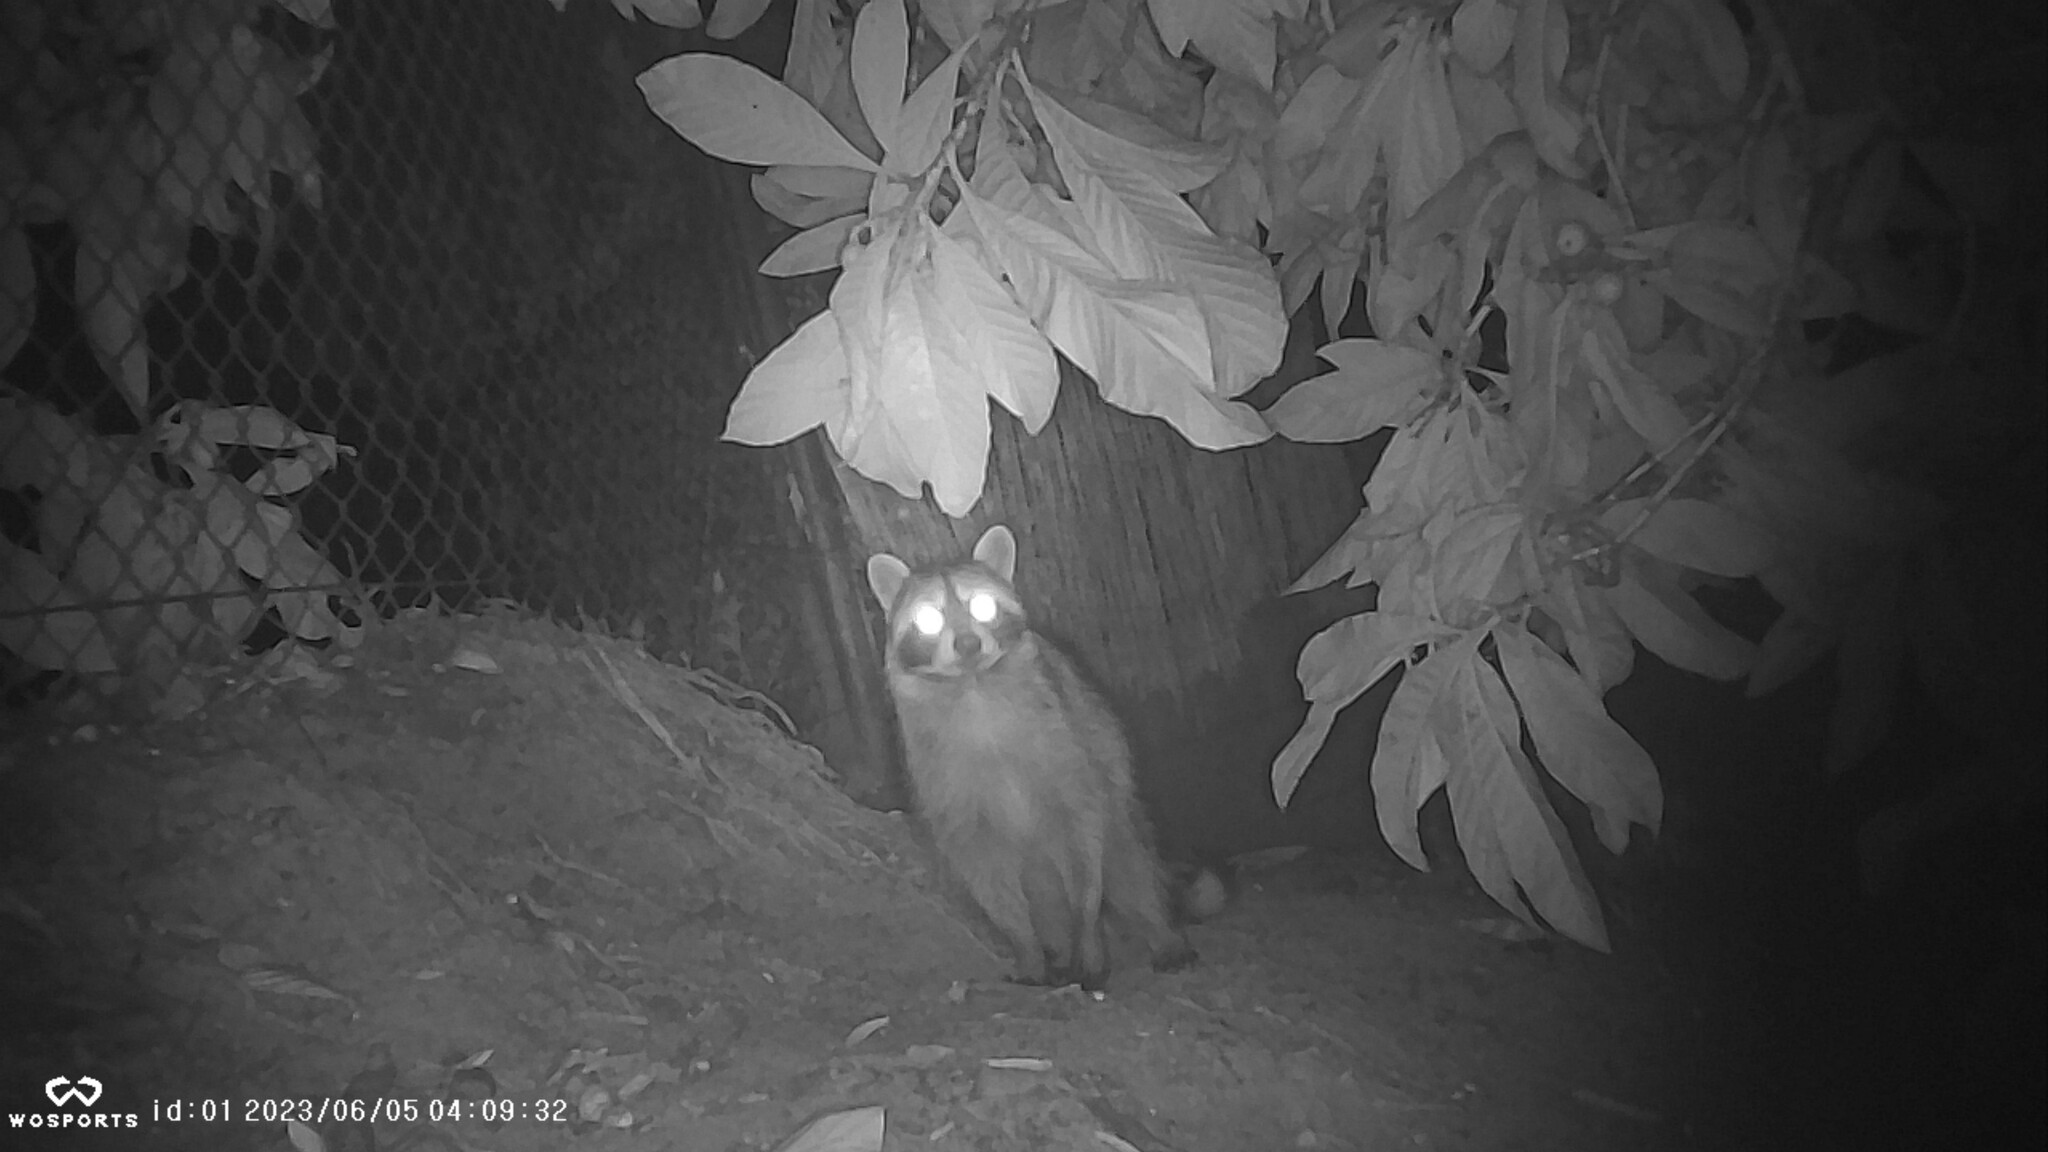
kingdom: Animalia
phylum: Chordata
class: Mammalia
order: Carnivora
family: Procyonidae
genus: Procyon
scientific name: Procyon lotor
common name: Raccoon
